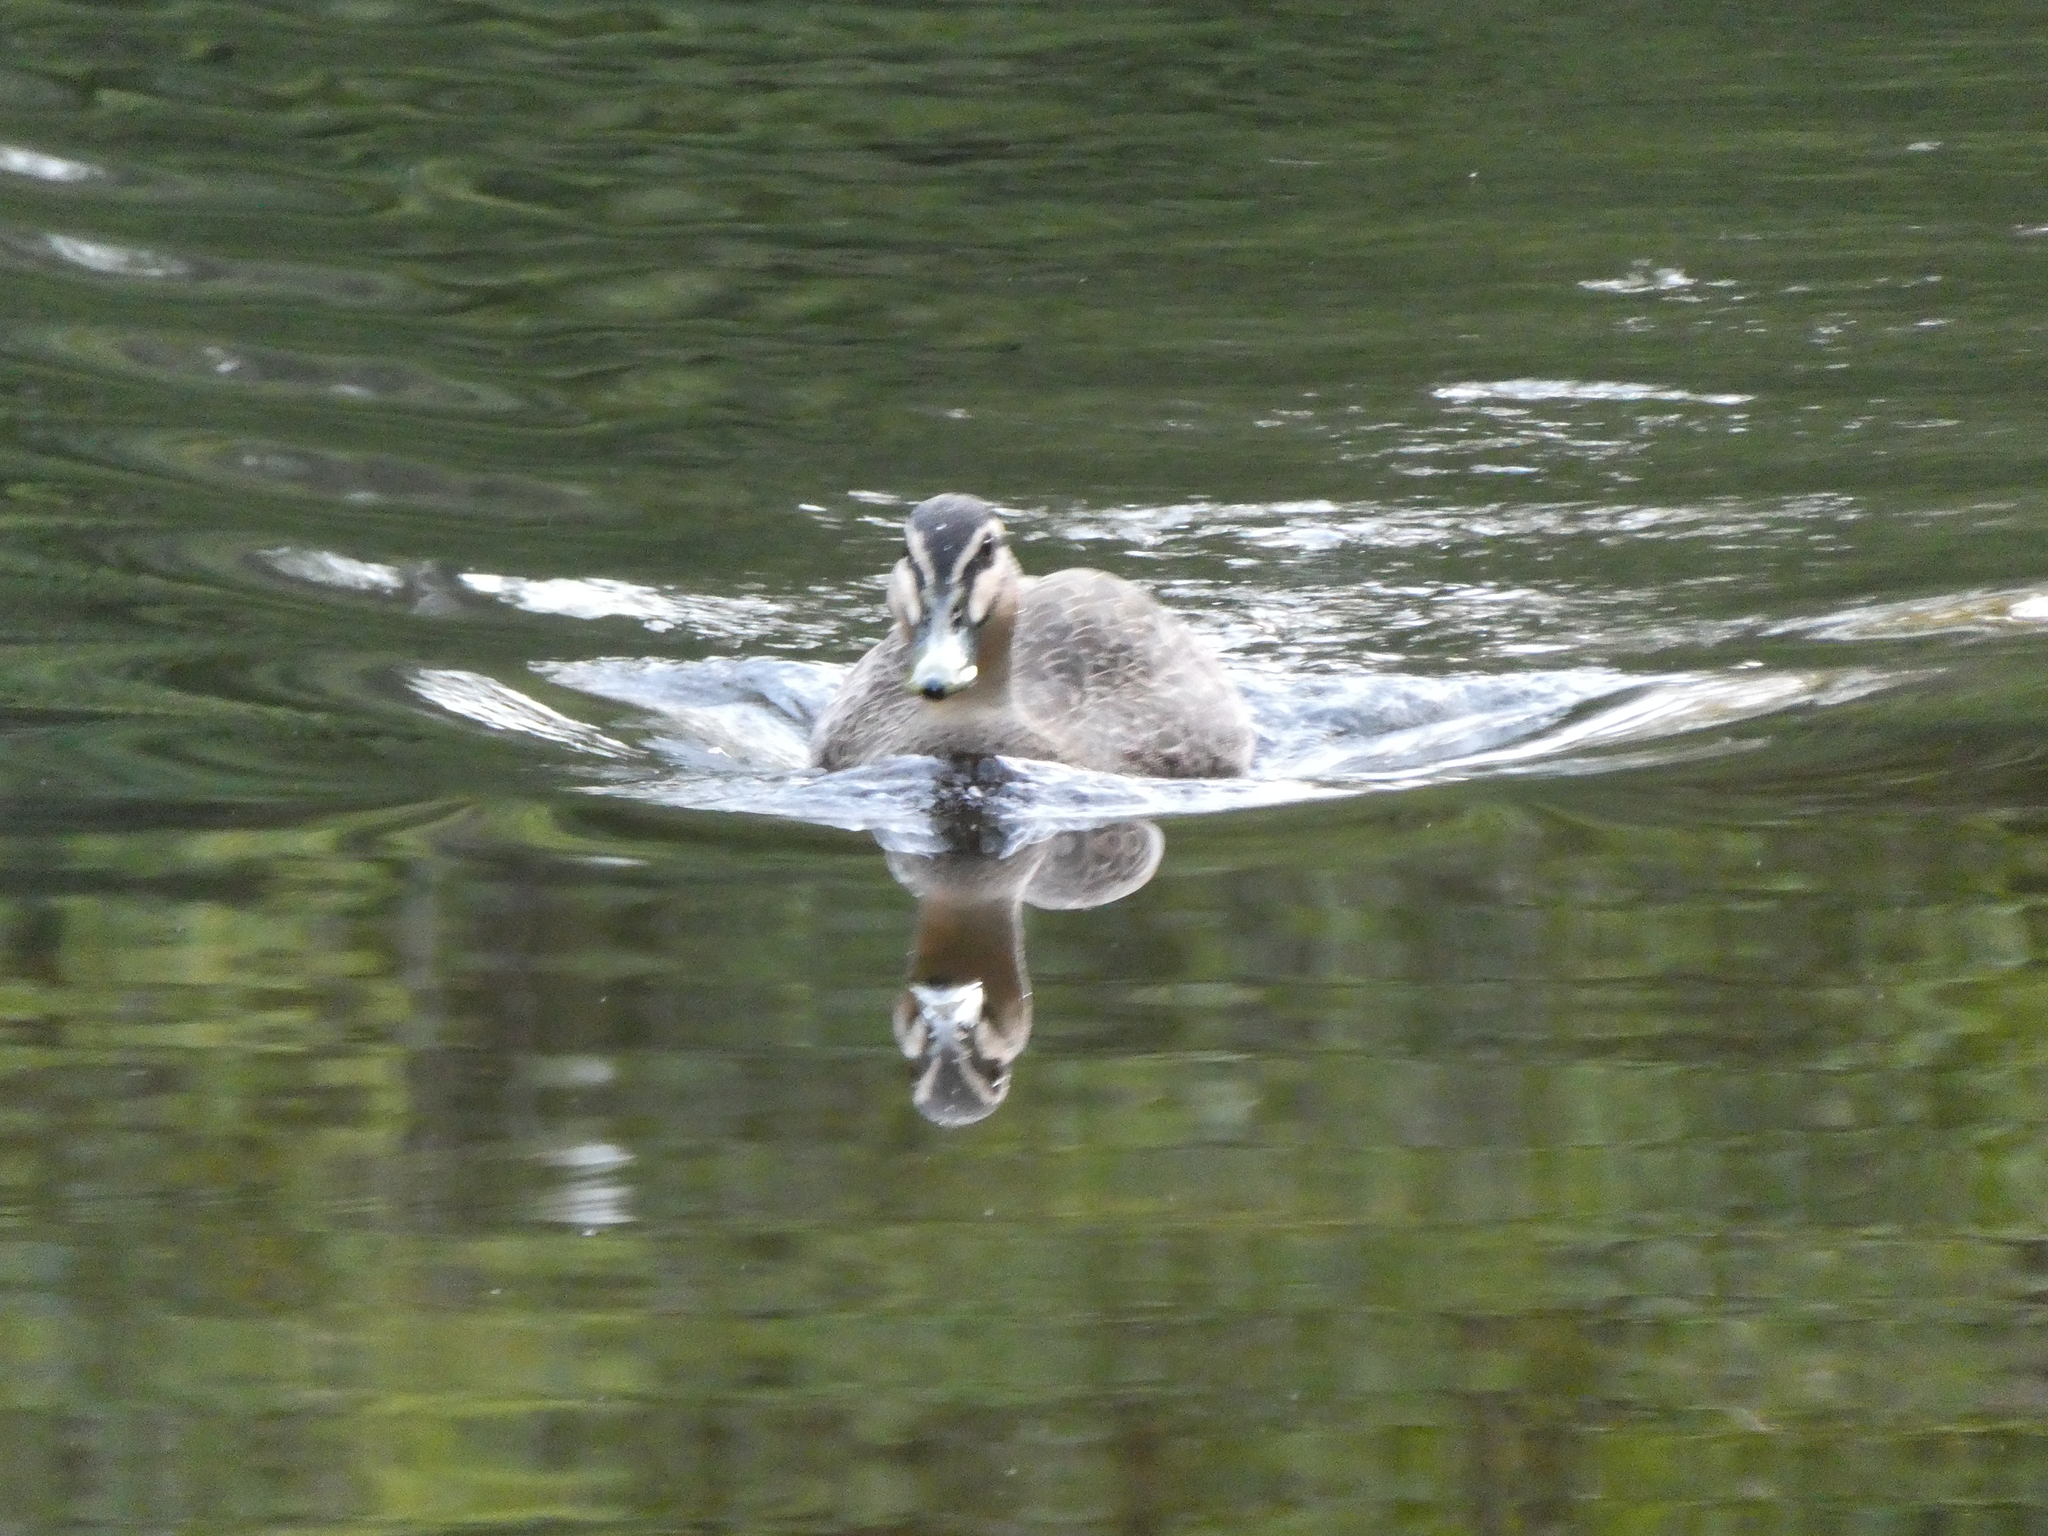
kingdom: Animalia
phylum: Chordata
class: Aves
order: Anseriformes
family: Anatidae
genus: Anas
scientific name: Anas
